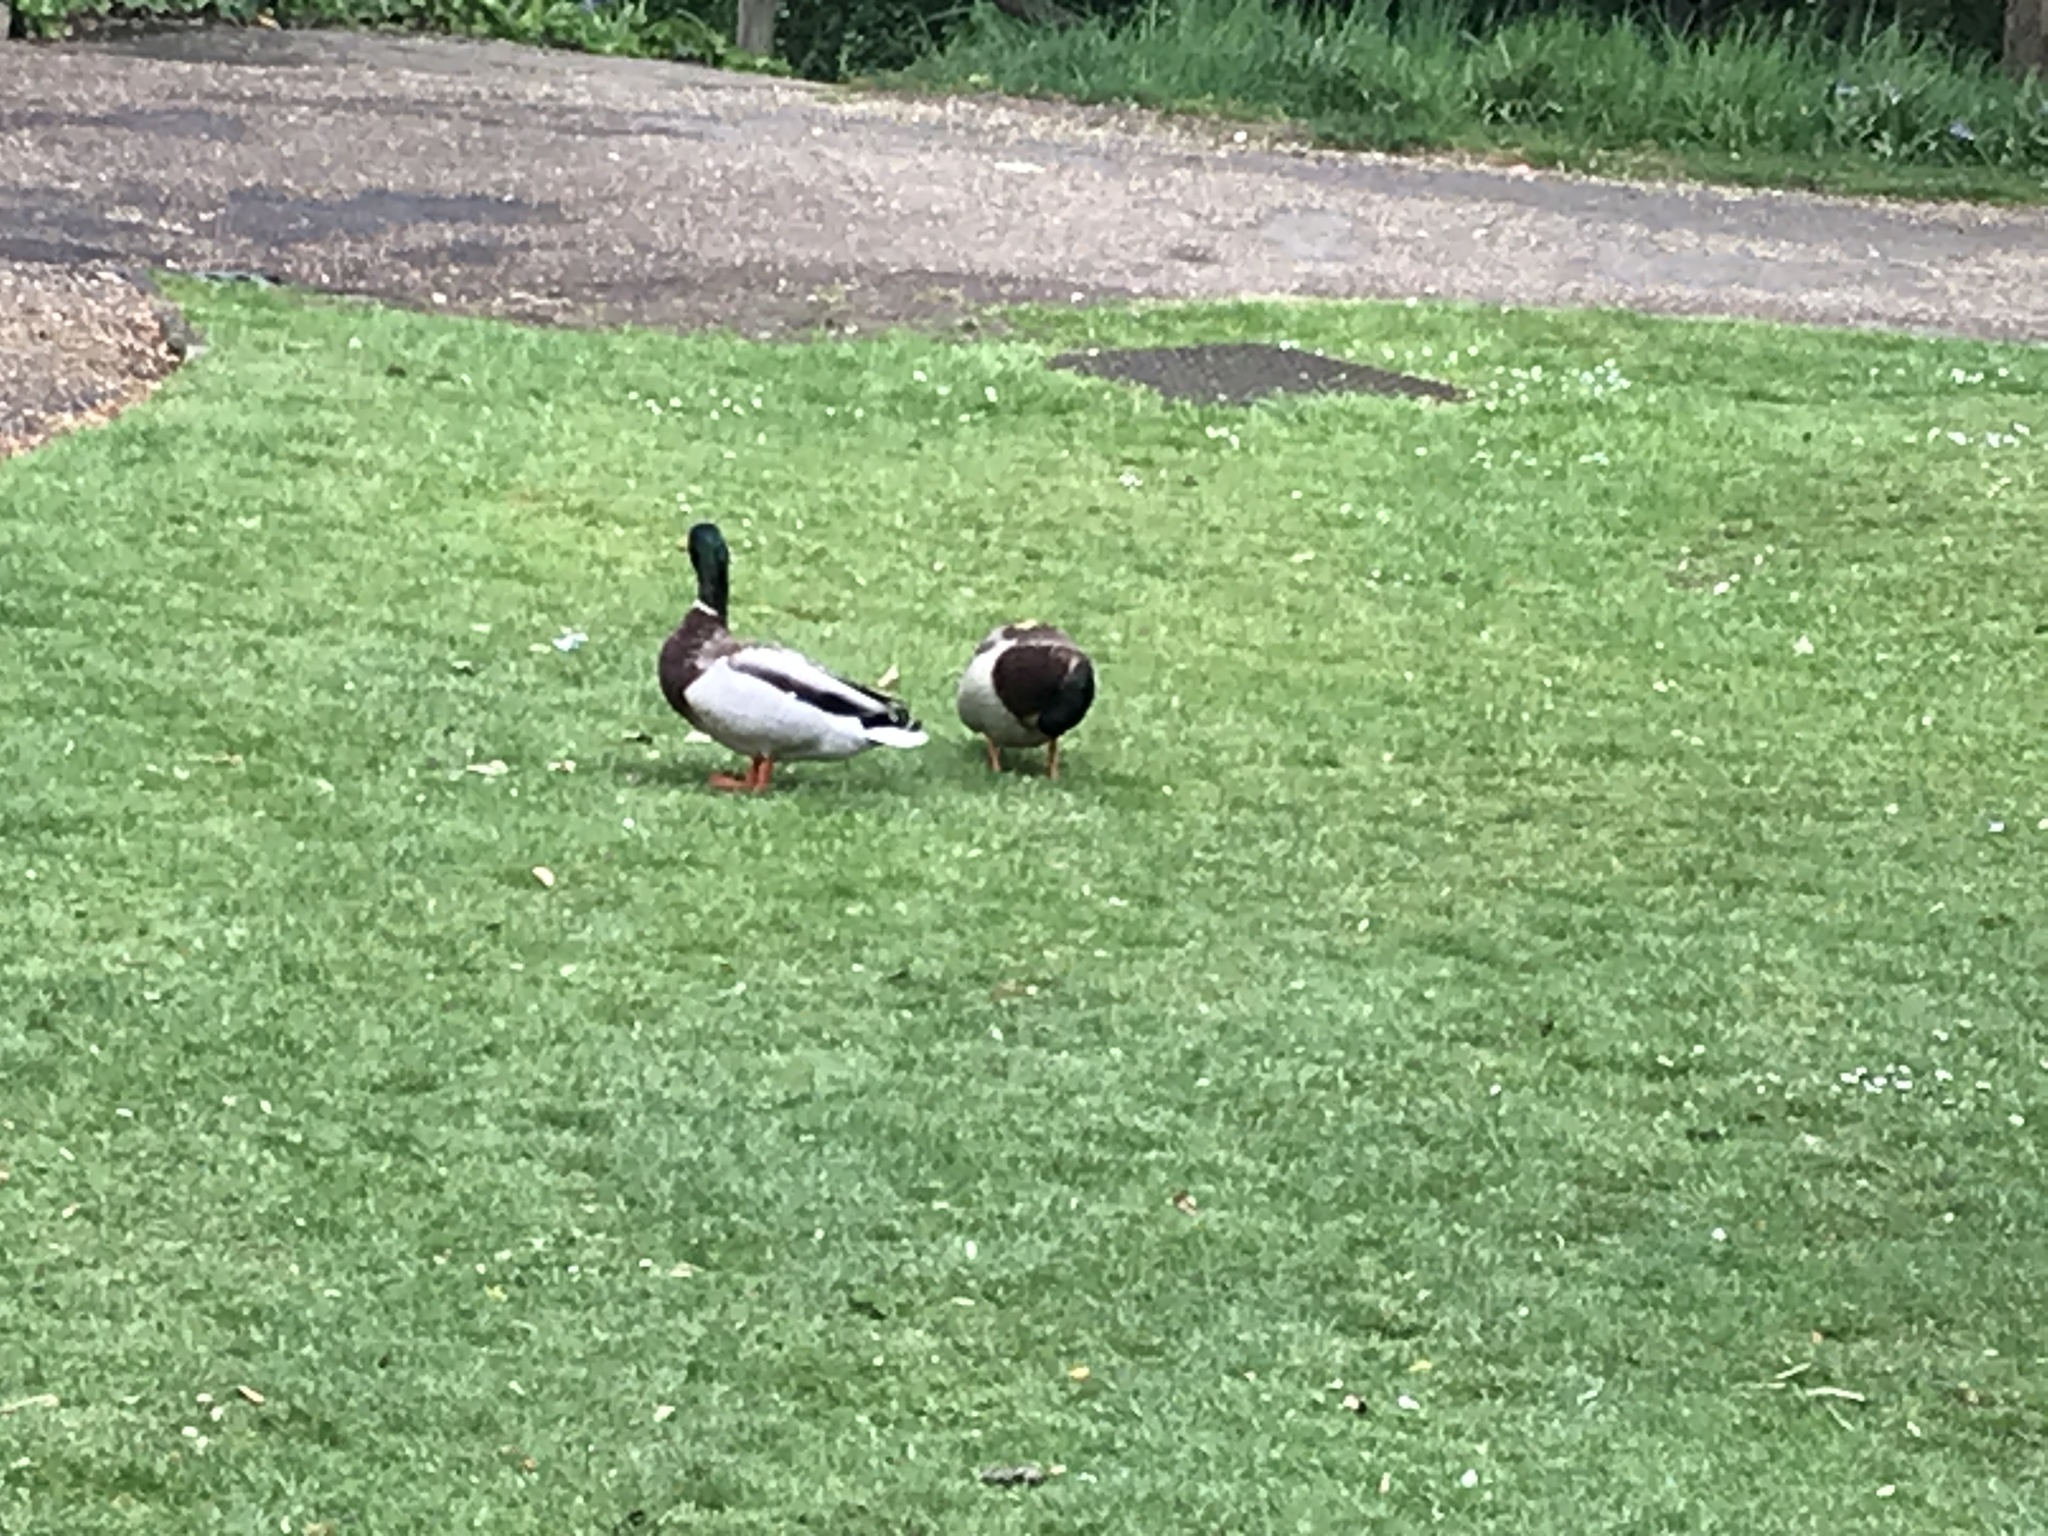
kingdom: Animalia
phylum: Chordata
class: Aves
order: Anseriformes
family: Anatidae
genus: Anas
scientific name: Anas platyrhynchos
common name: Mallard
